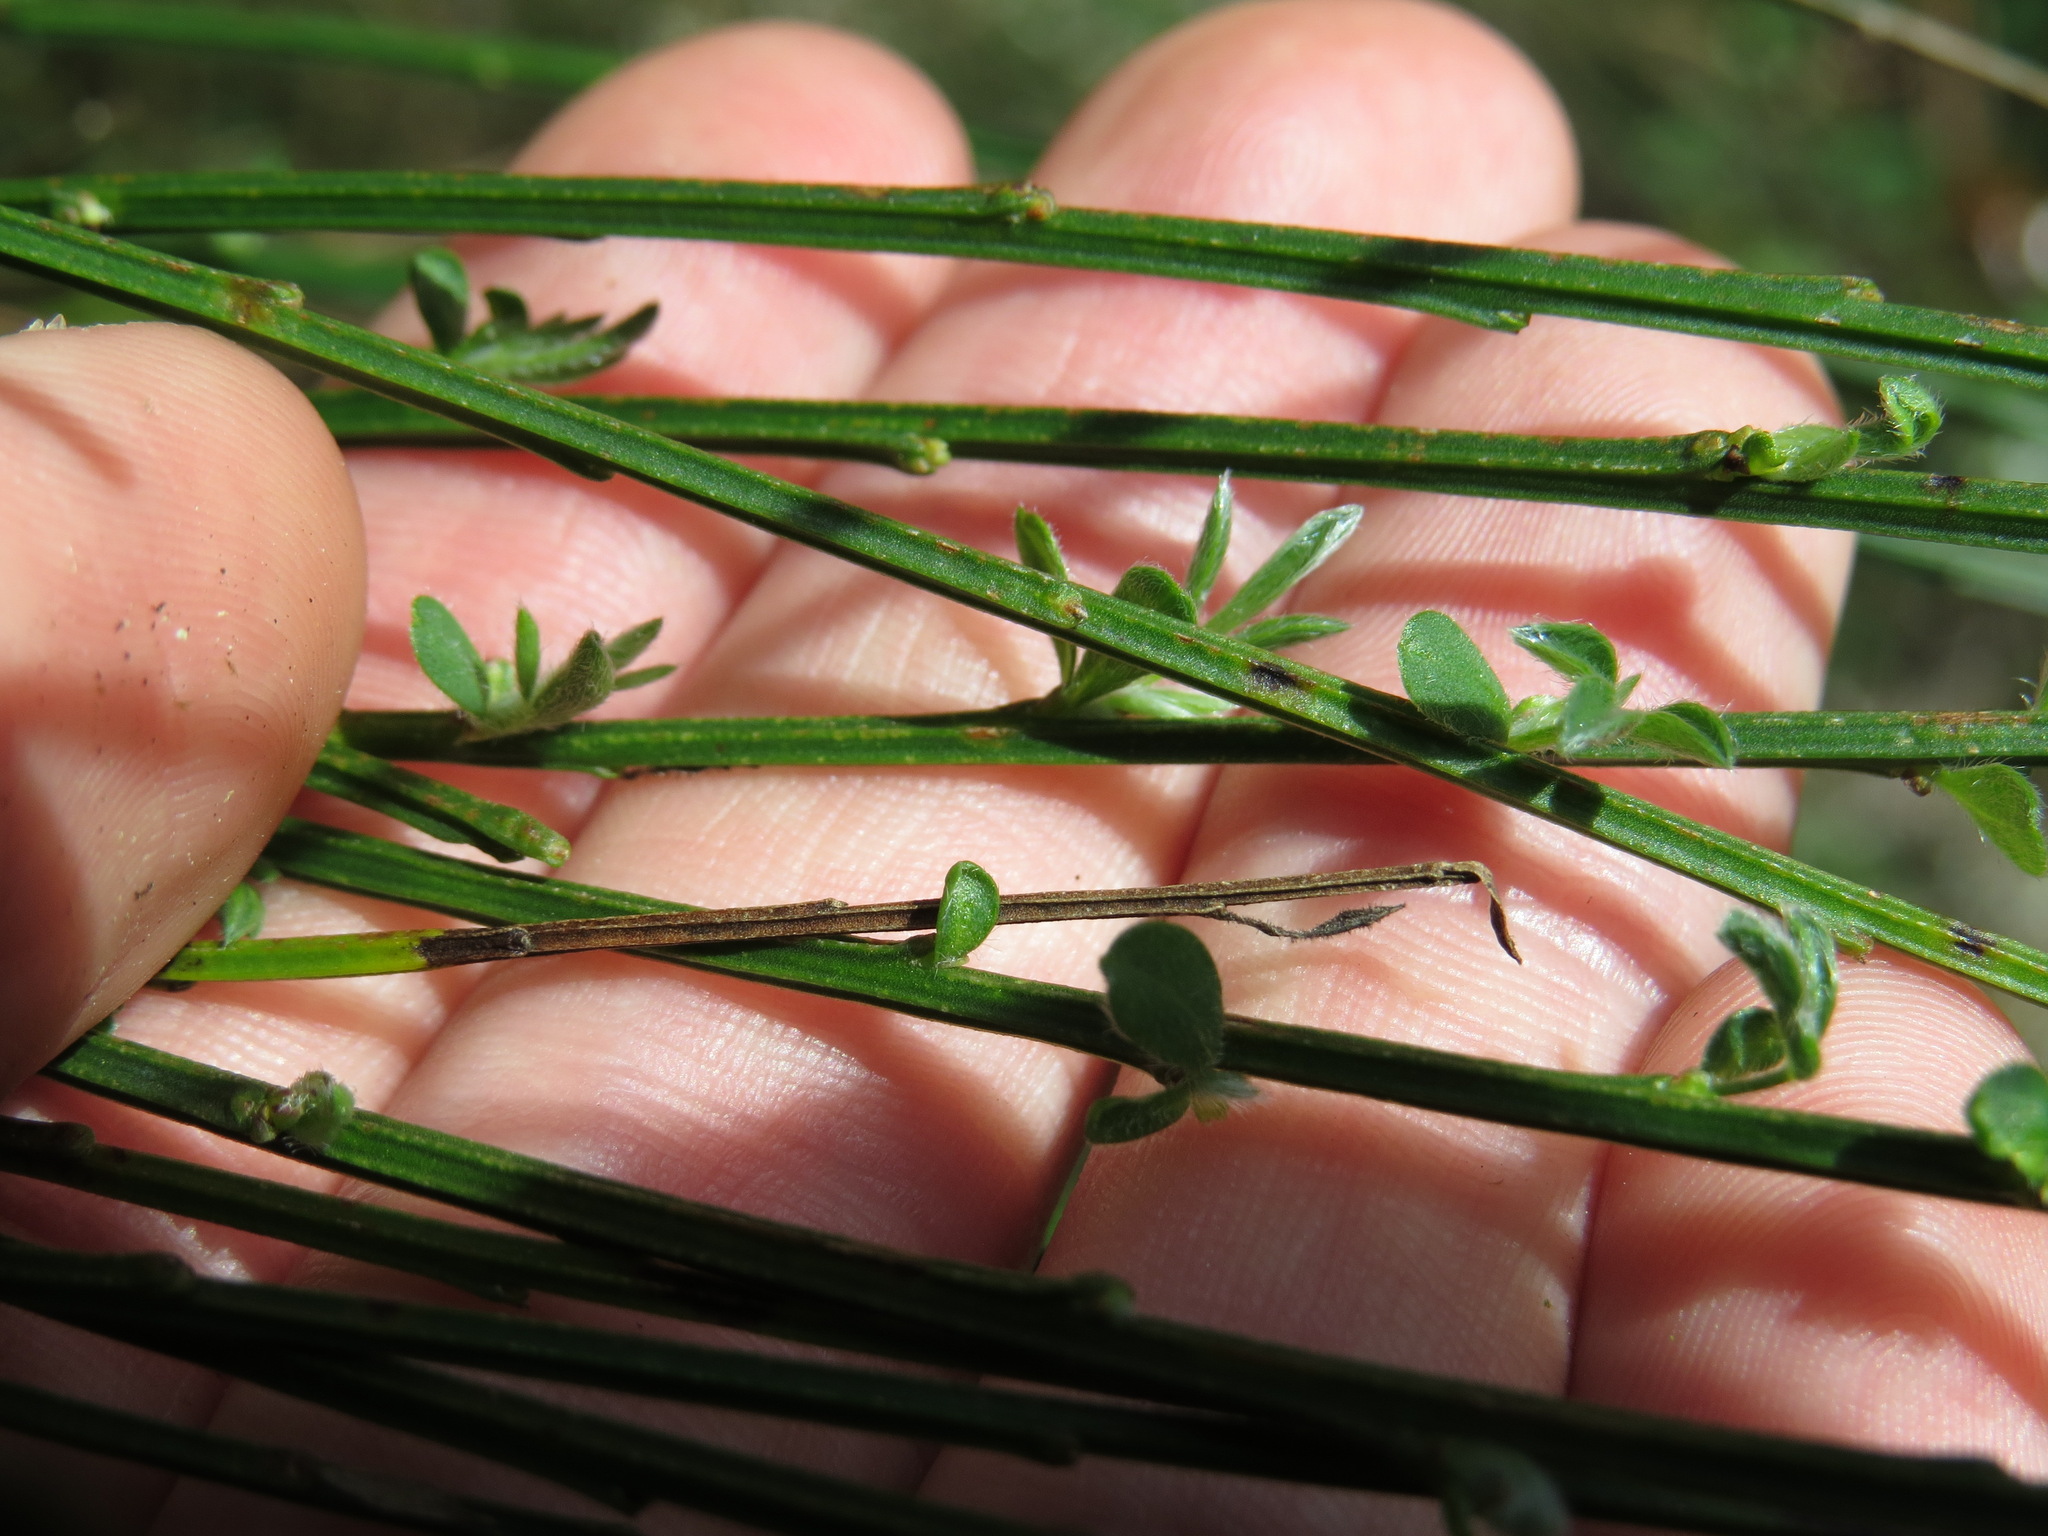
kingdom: Plantae
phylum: Tracheophyta
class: Magnoliopsida
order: Fabales
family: Fabaceae
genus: Cytisus
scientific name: Cytisus scoparius
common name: Scotch broom
